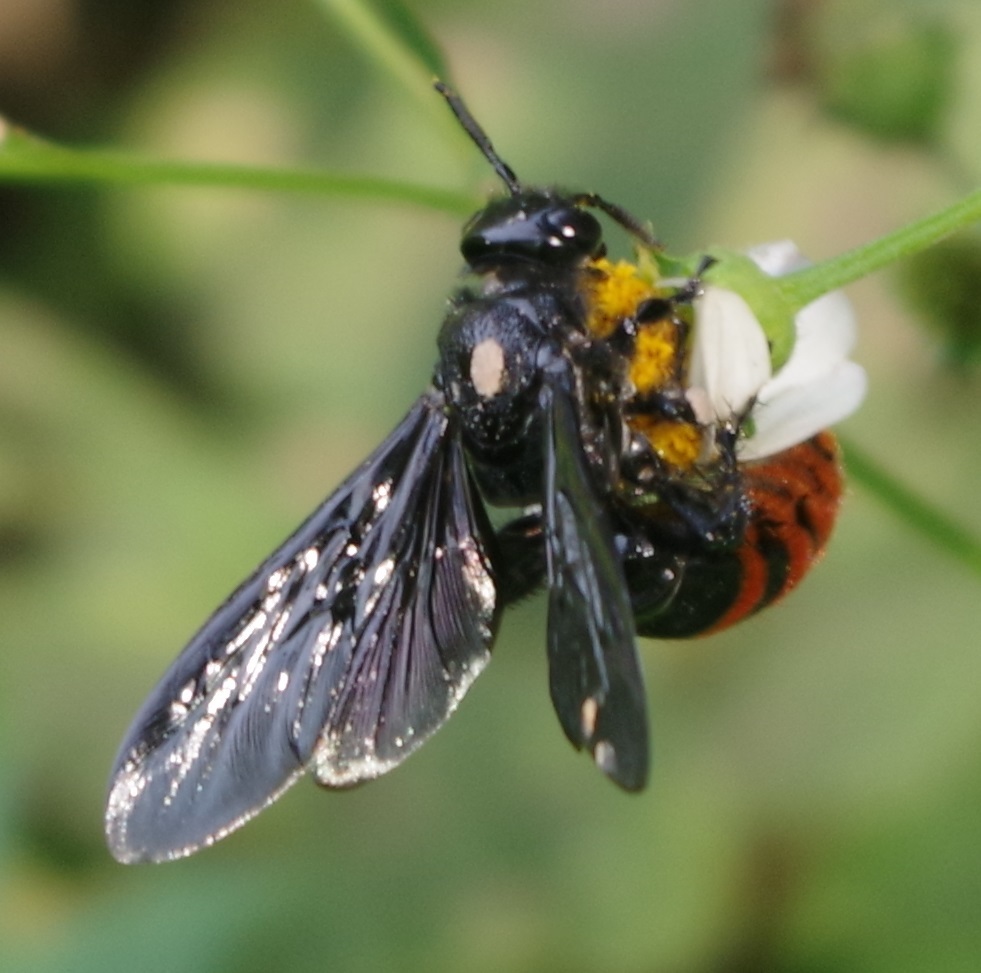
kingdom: Animalia
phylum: Arthropoda
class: Insecta
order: Hymenoptera
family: Scoliidae
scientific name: Scoliidae
